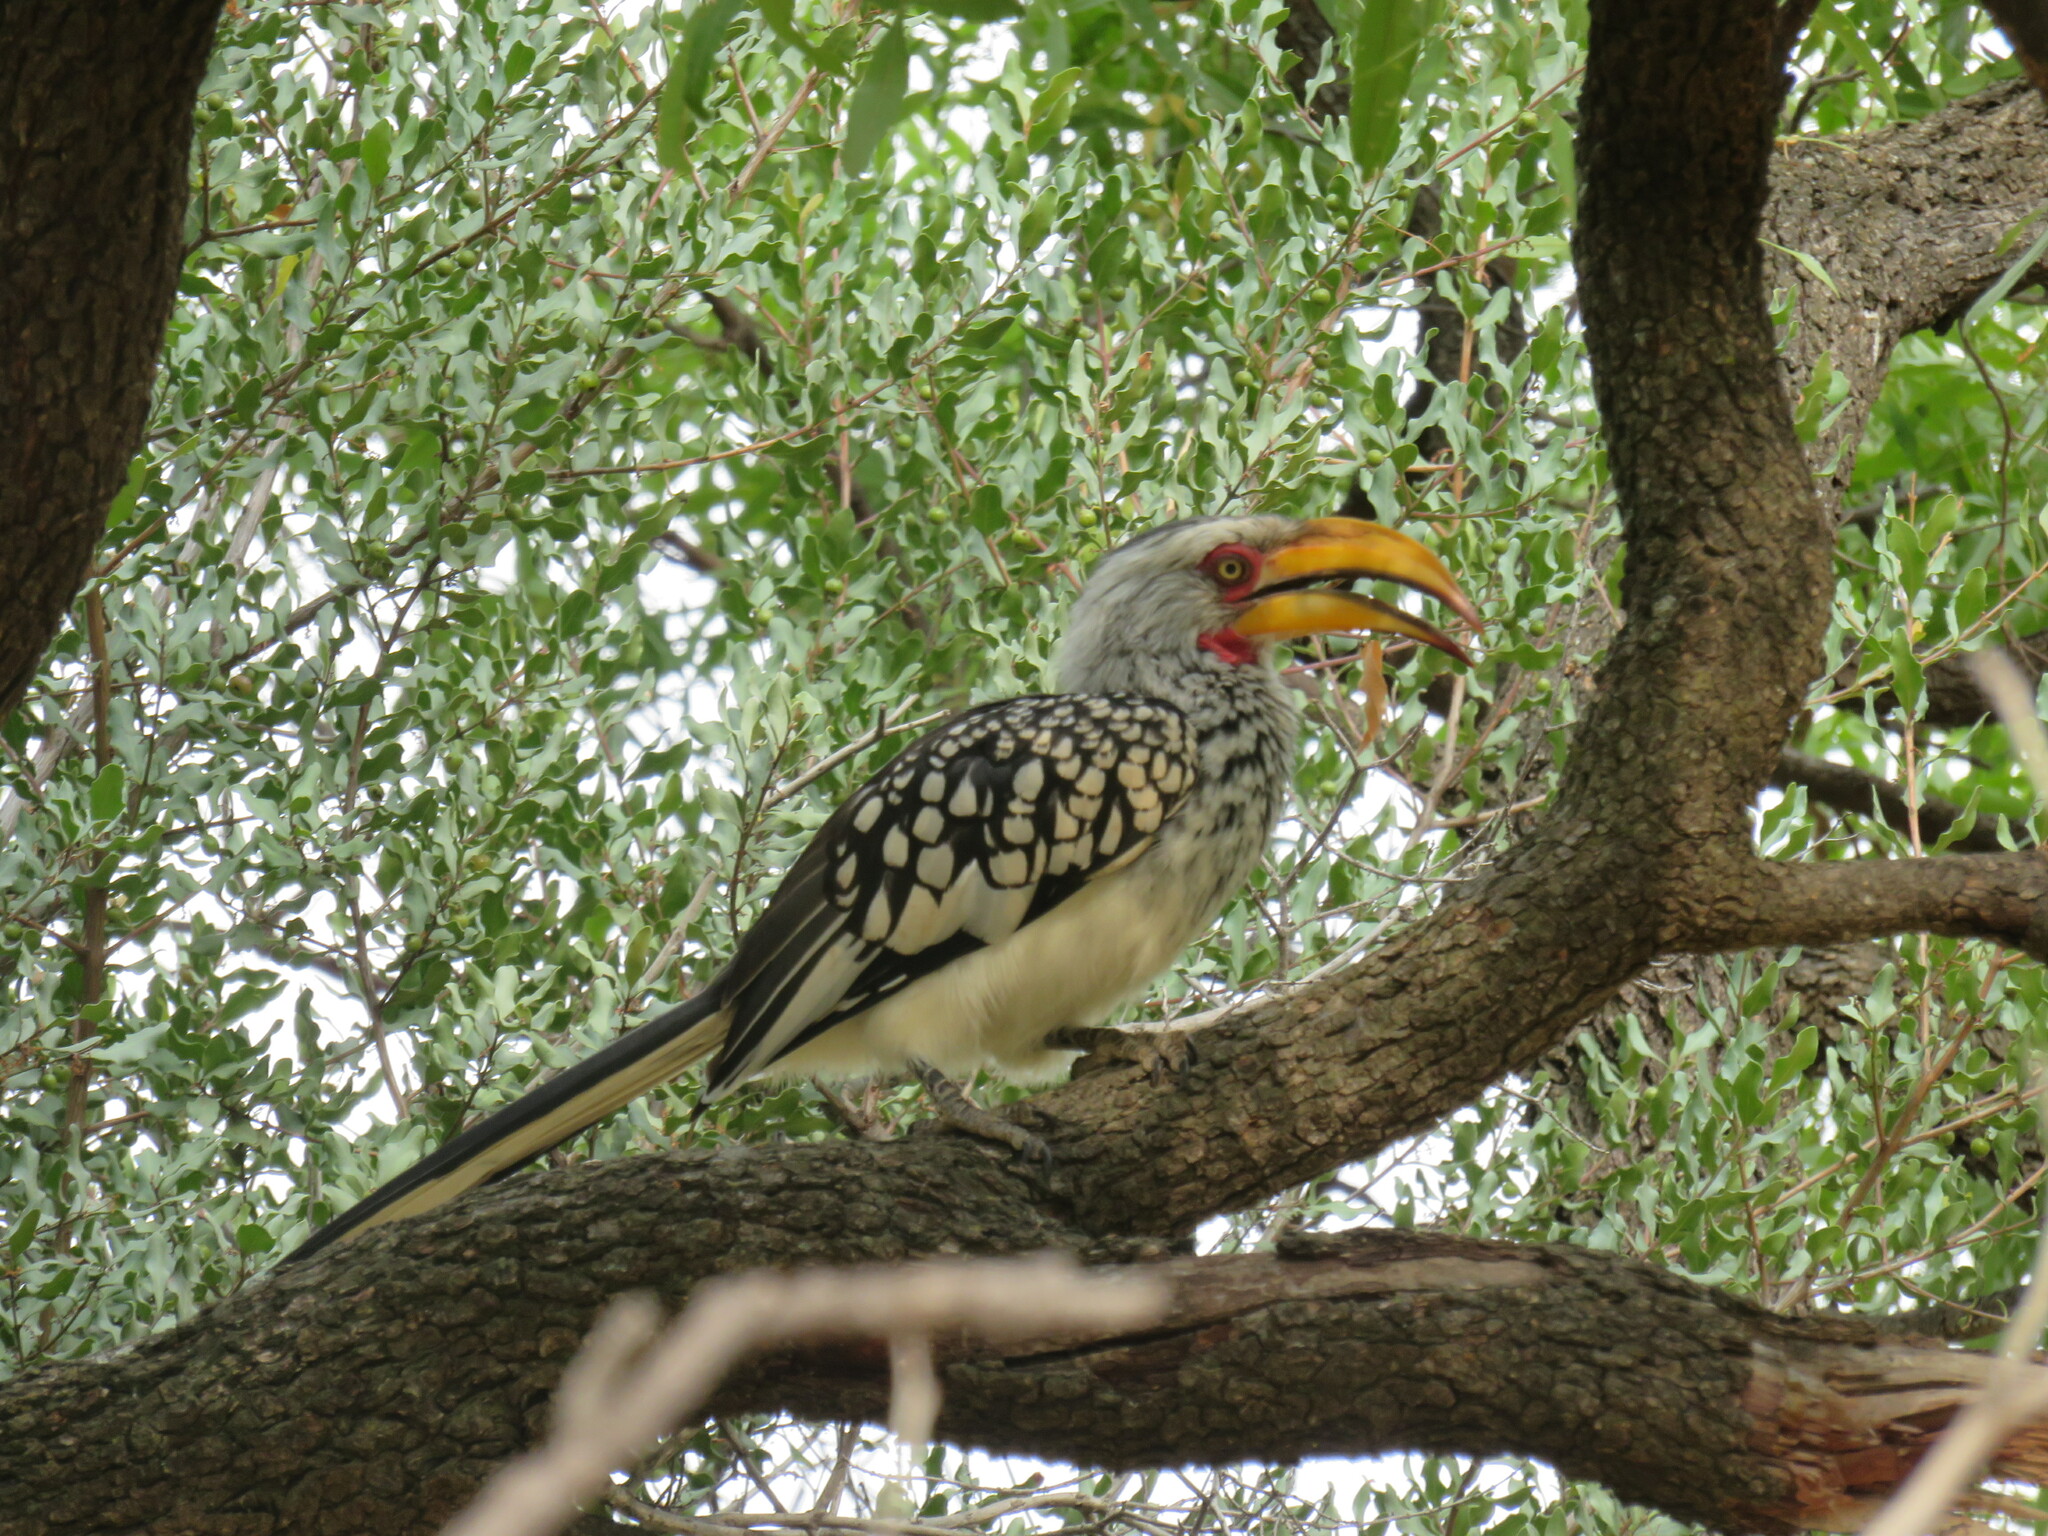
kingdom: Animalia
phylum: Chordata
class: Aves
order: Bucerotiformes
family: Bucerotidae
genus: Tockus
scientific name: Tockus leucomelas
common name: Southern yellow-billed hornbill
